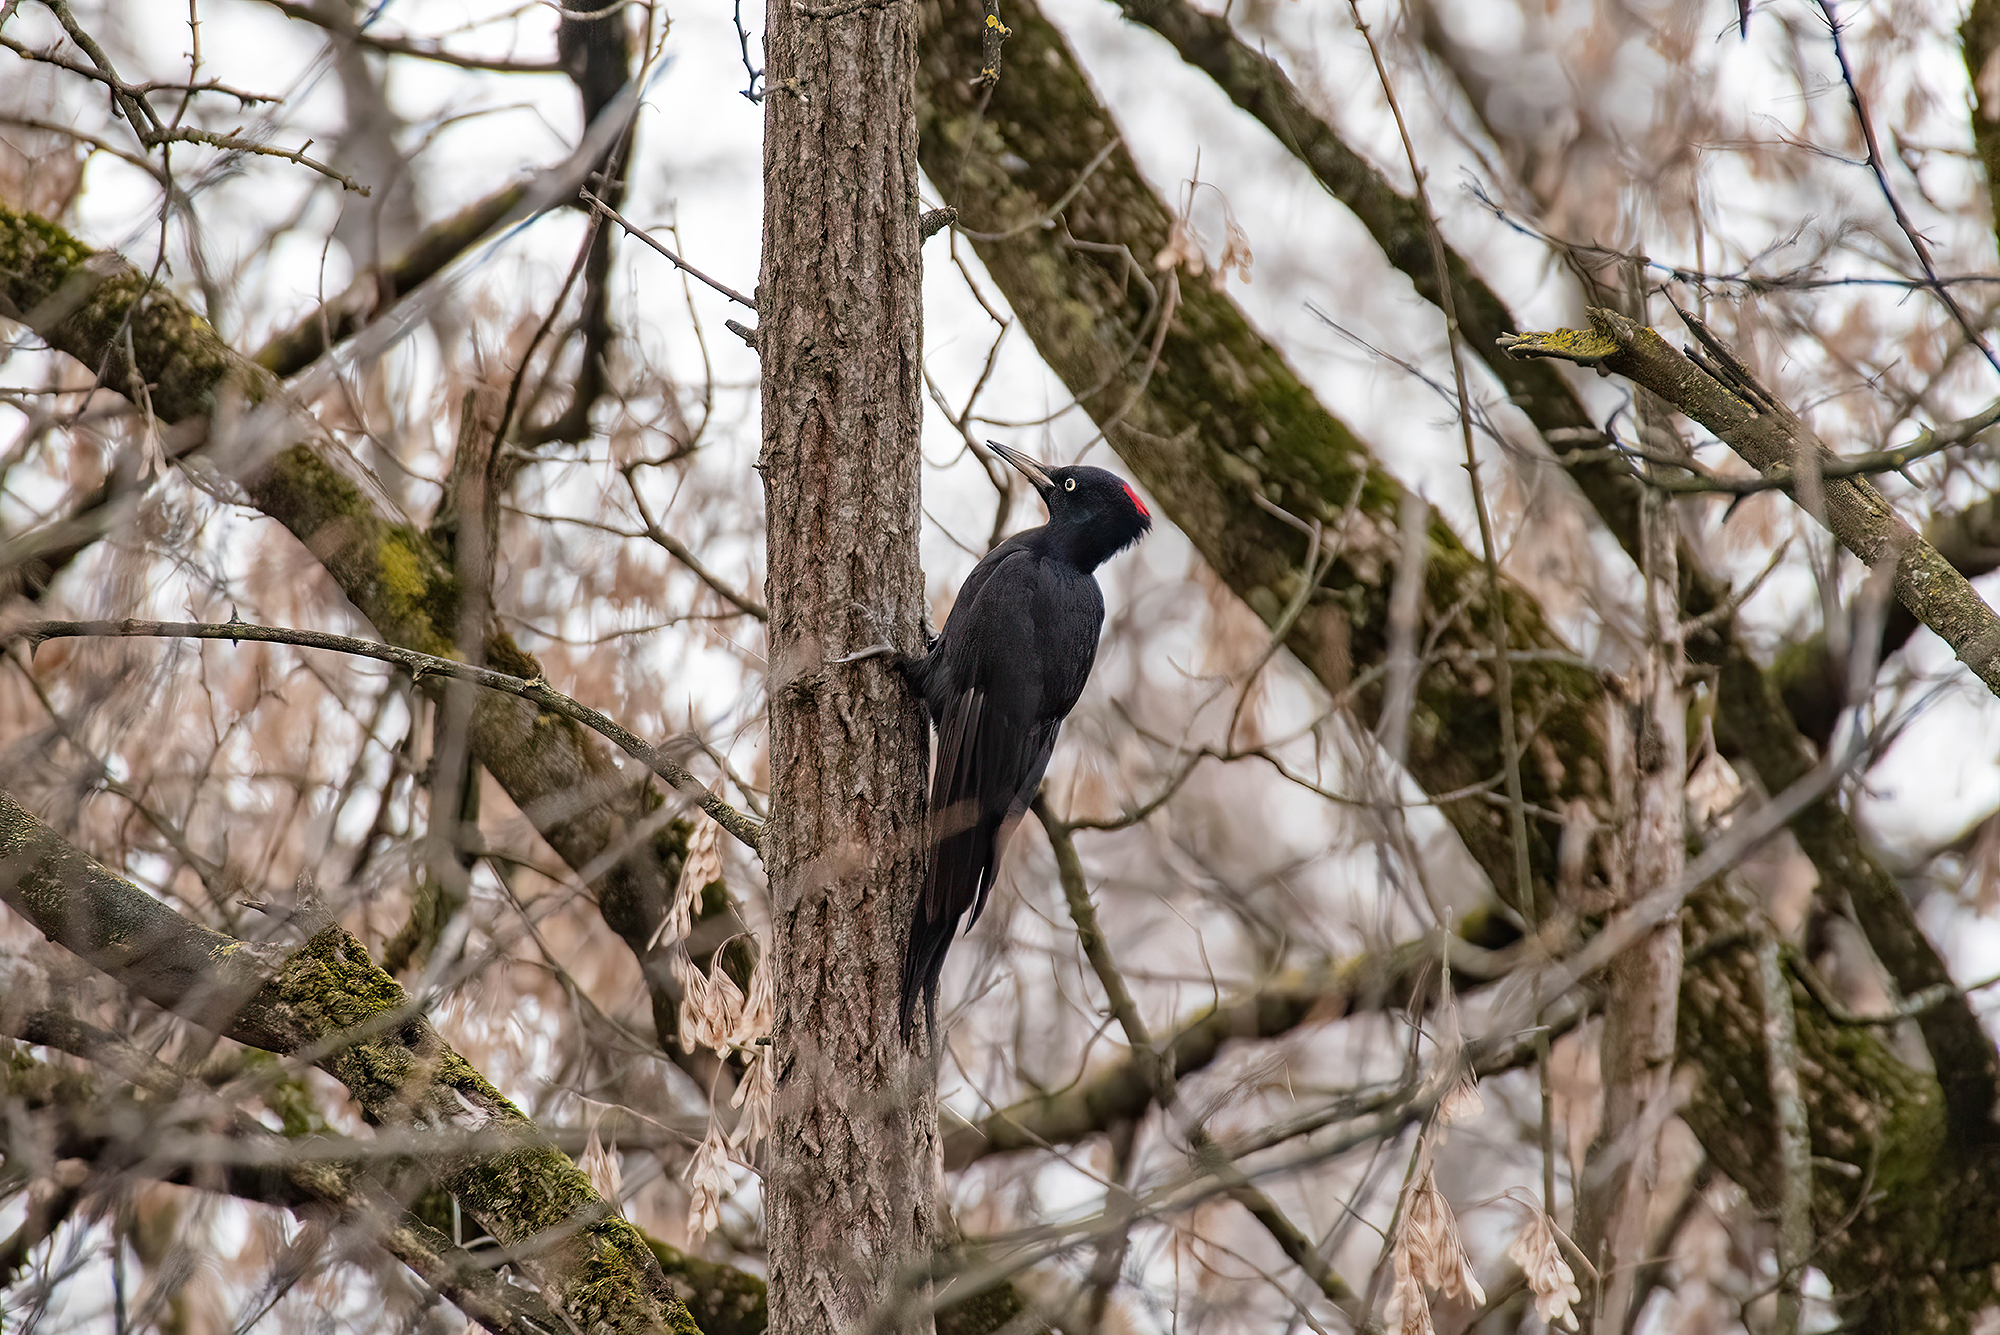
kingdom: Animalia
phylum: Chordata
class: Aves
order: Piciformes
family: Picidae
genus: Dryocopus
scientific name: Dryocopus martius
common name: Black woodpecker
